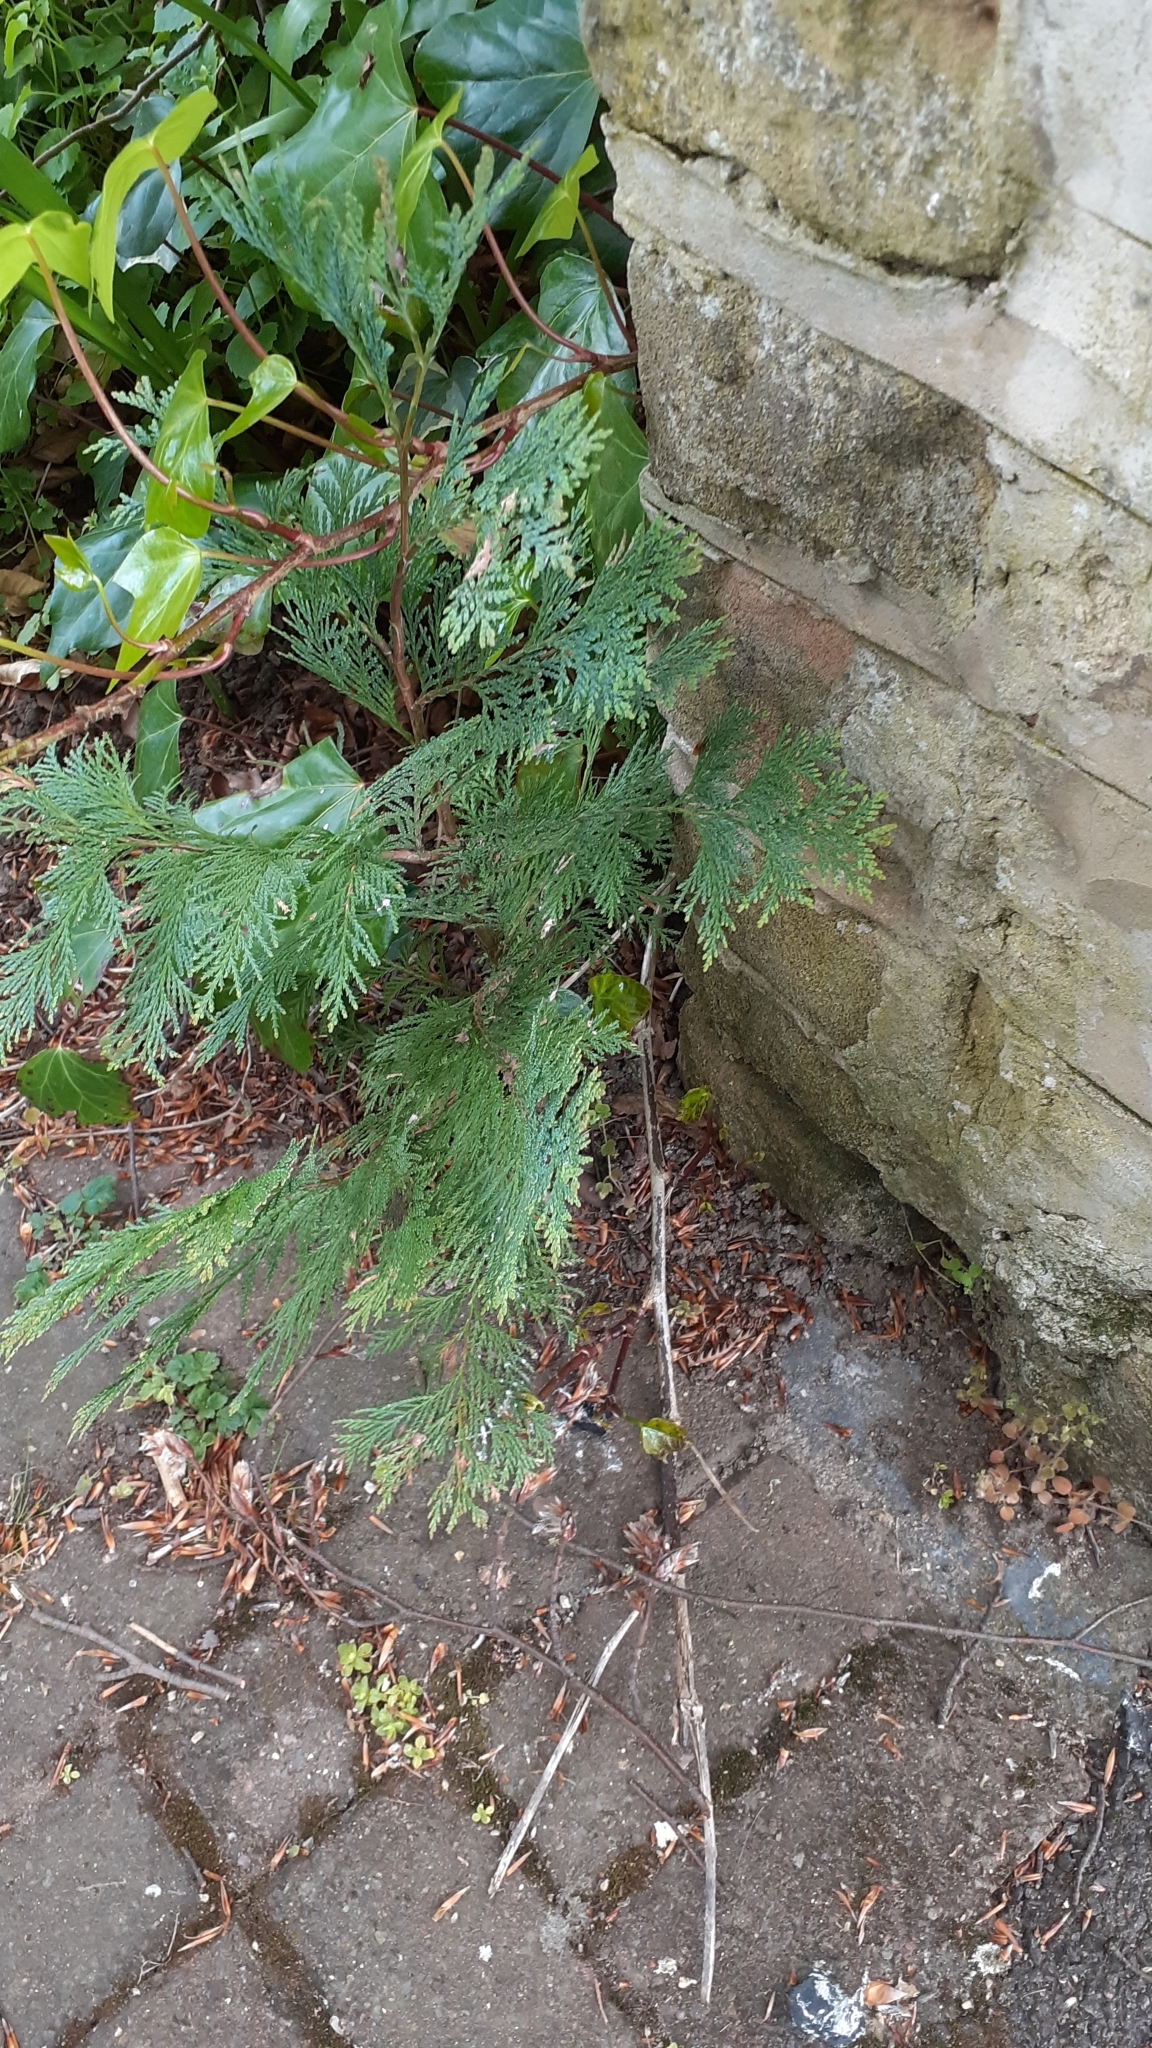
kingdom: Plantae
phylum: Tracheophyta
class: Pinopsida
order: Pinales
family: Cupressaceae
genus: Chamaecyparis
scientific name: Chamaecyparis lawsoniana
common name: Lawson's cypress
